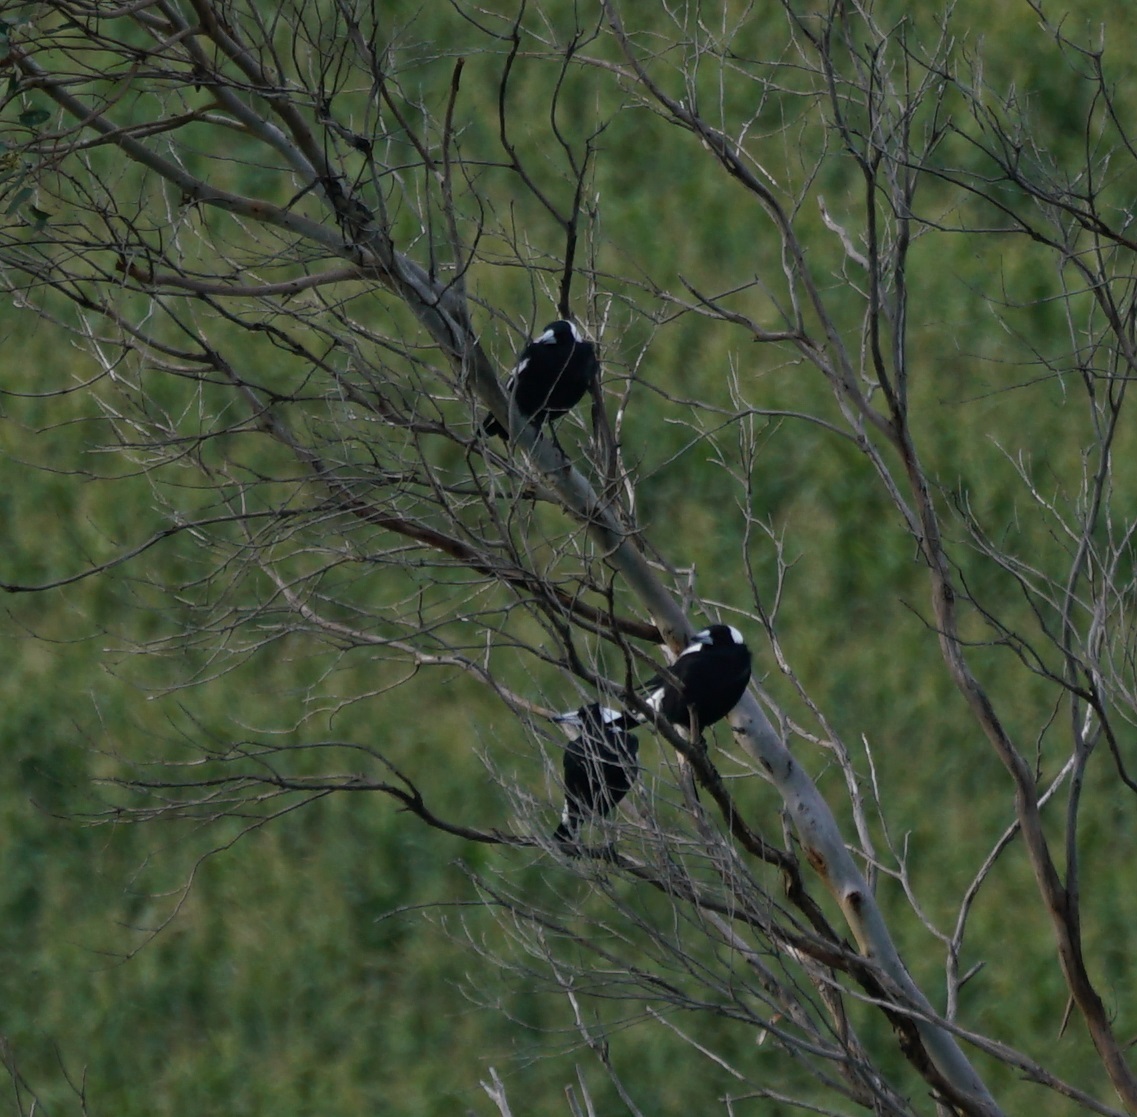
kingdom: Animalia
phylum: Chordata
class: Aves
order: Passeriformes
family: Cracticidae
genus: Gymnorhina
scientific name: Gymnorhina tibicen
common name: Australian magpie
